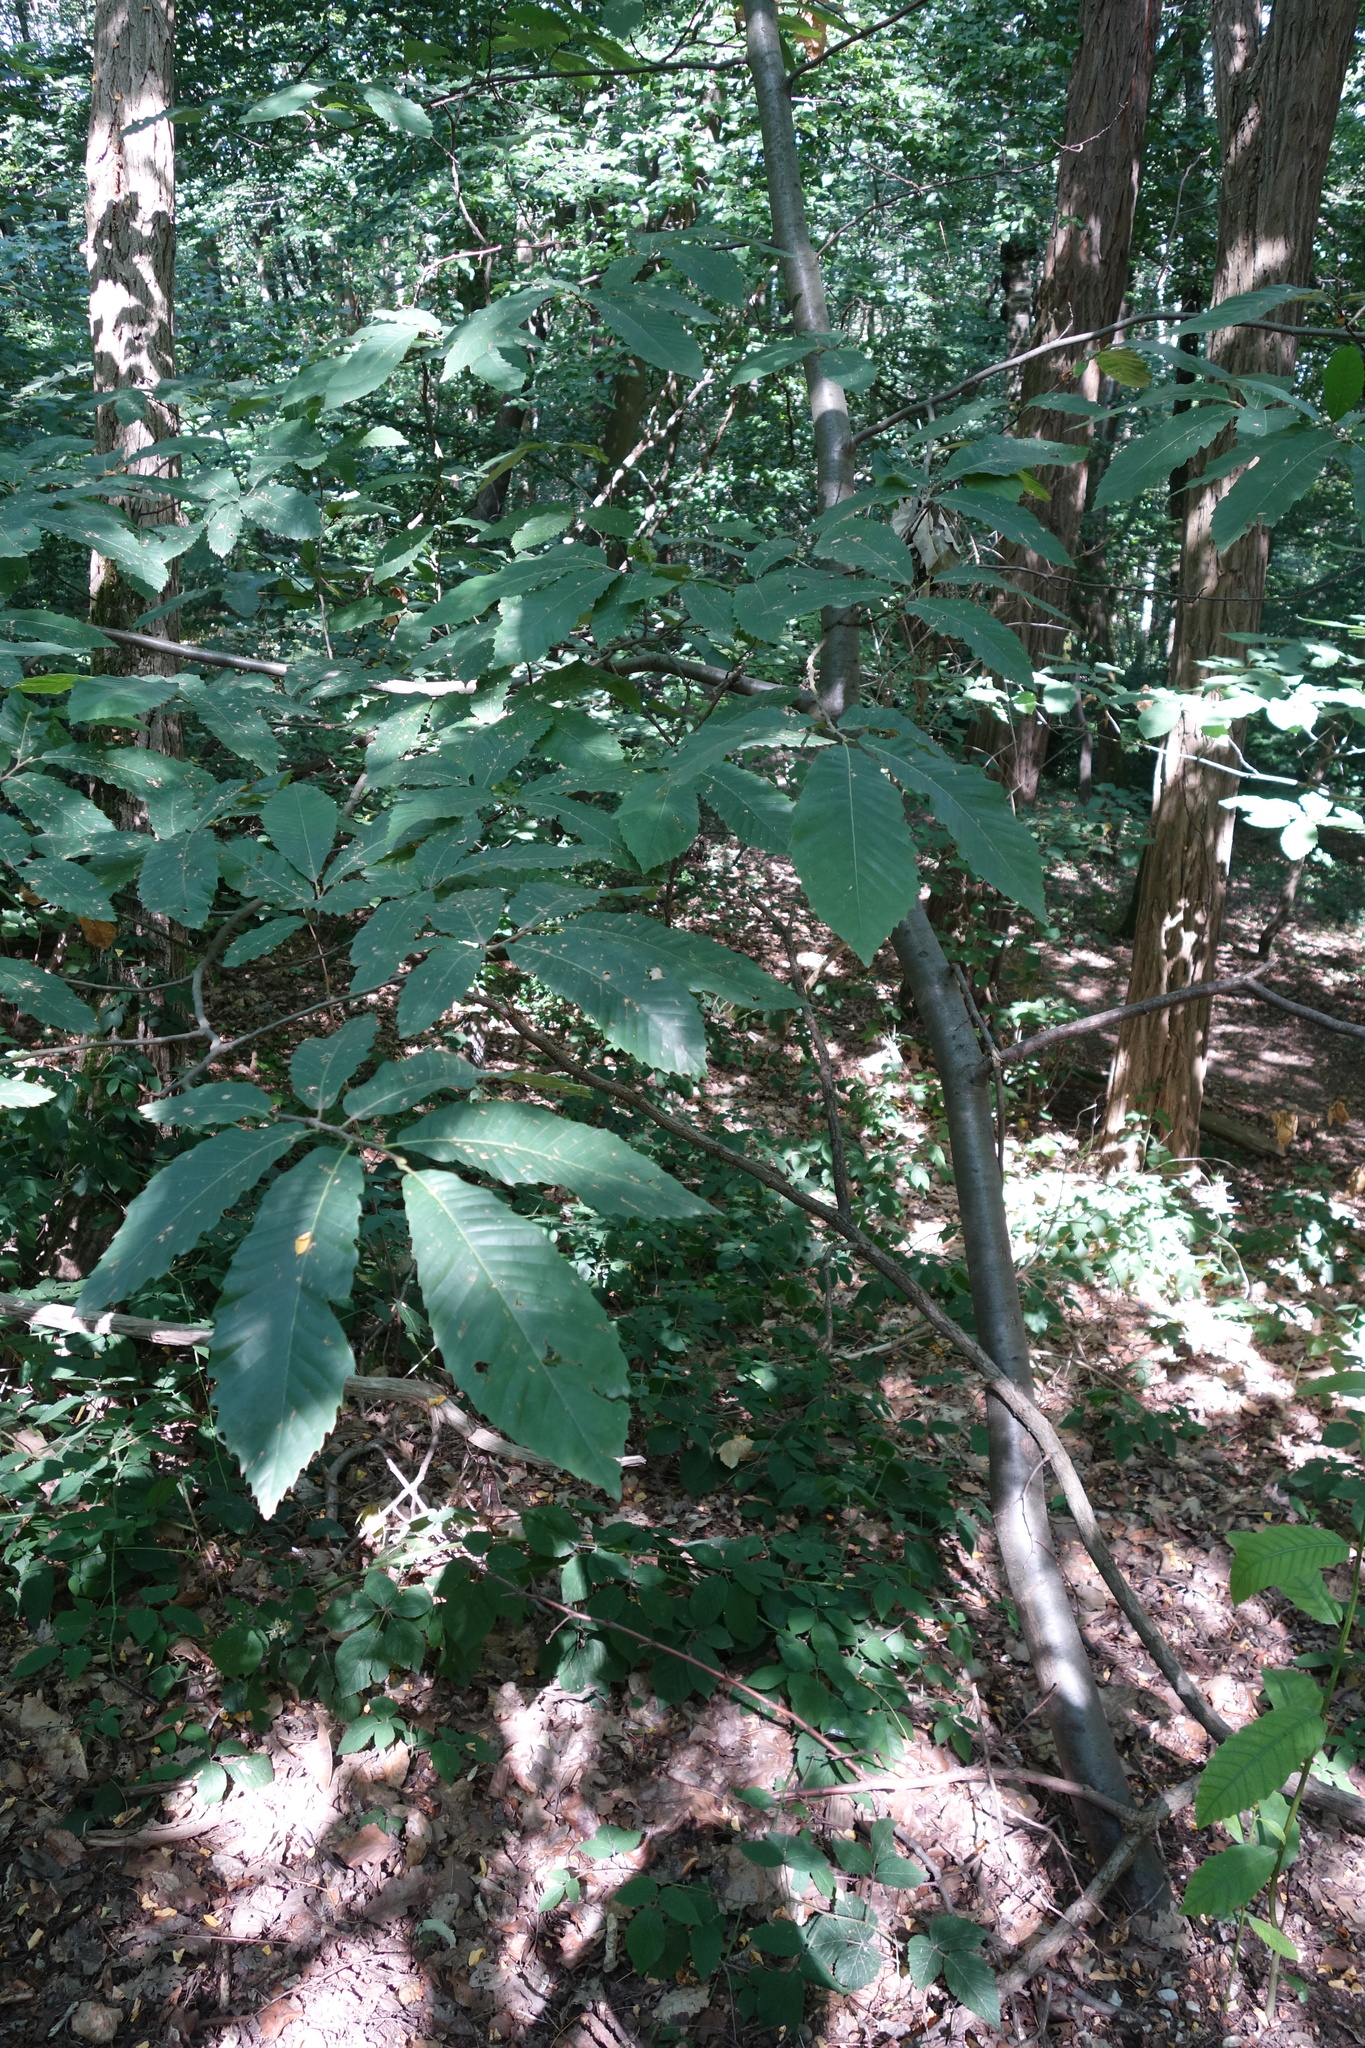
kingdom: Plantae
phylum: Tracheophyta
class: Magnoliopsida
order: Fagales
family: Fagaceae
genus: Castanea
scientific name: Castanea sativa
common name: Sweet chestnut
